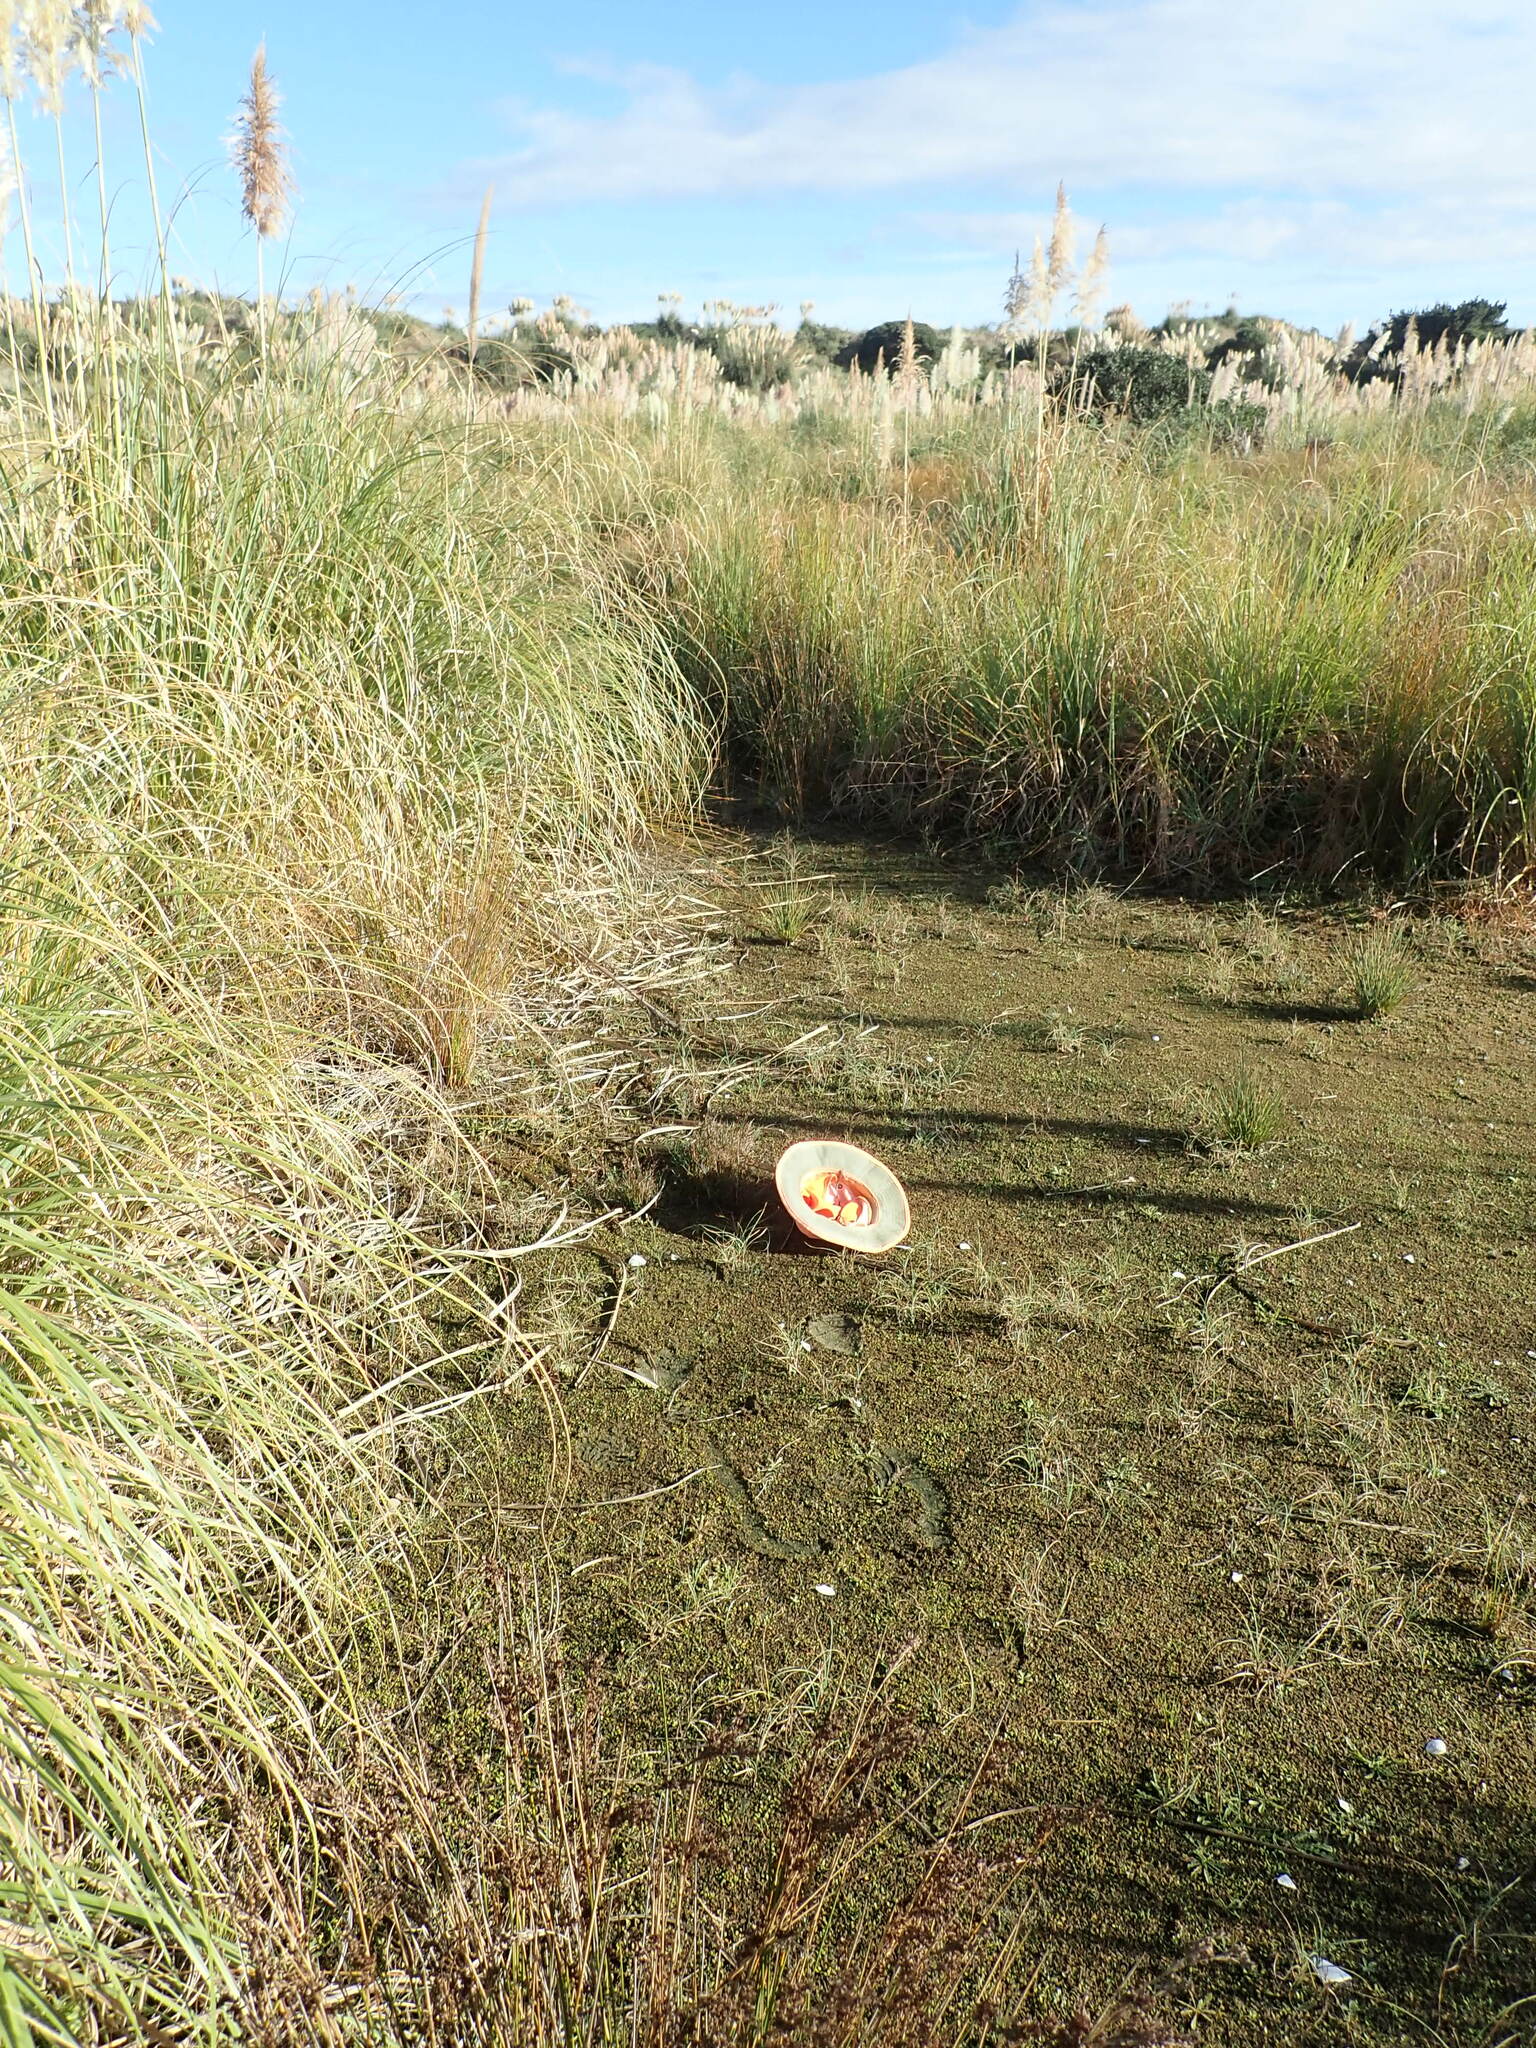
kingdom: Plantae
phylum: Tracheophyta
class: Liliopsida
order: Poales
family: Juncaceae
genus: Juncus
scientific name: Juncus articulatus
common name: Jointed rush
